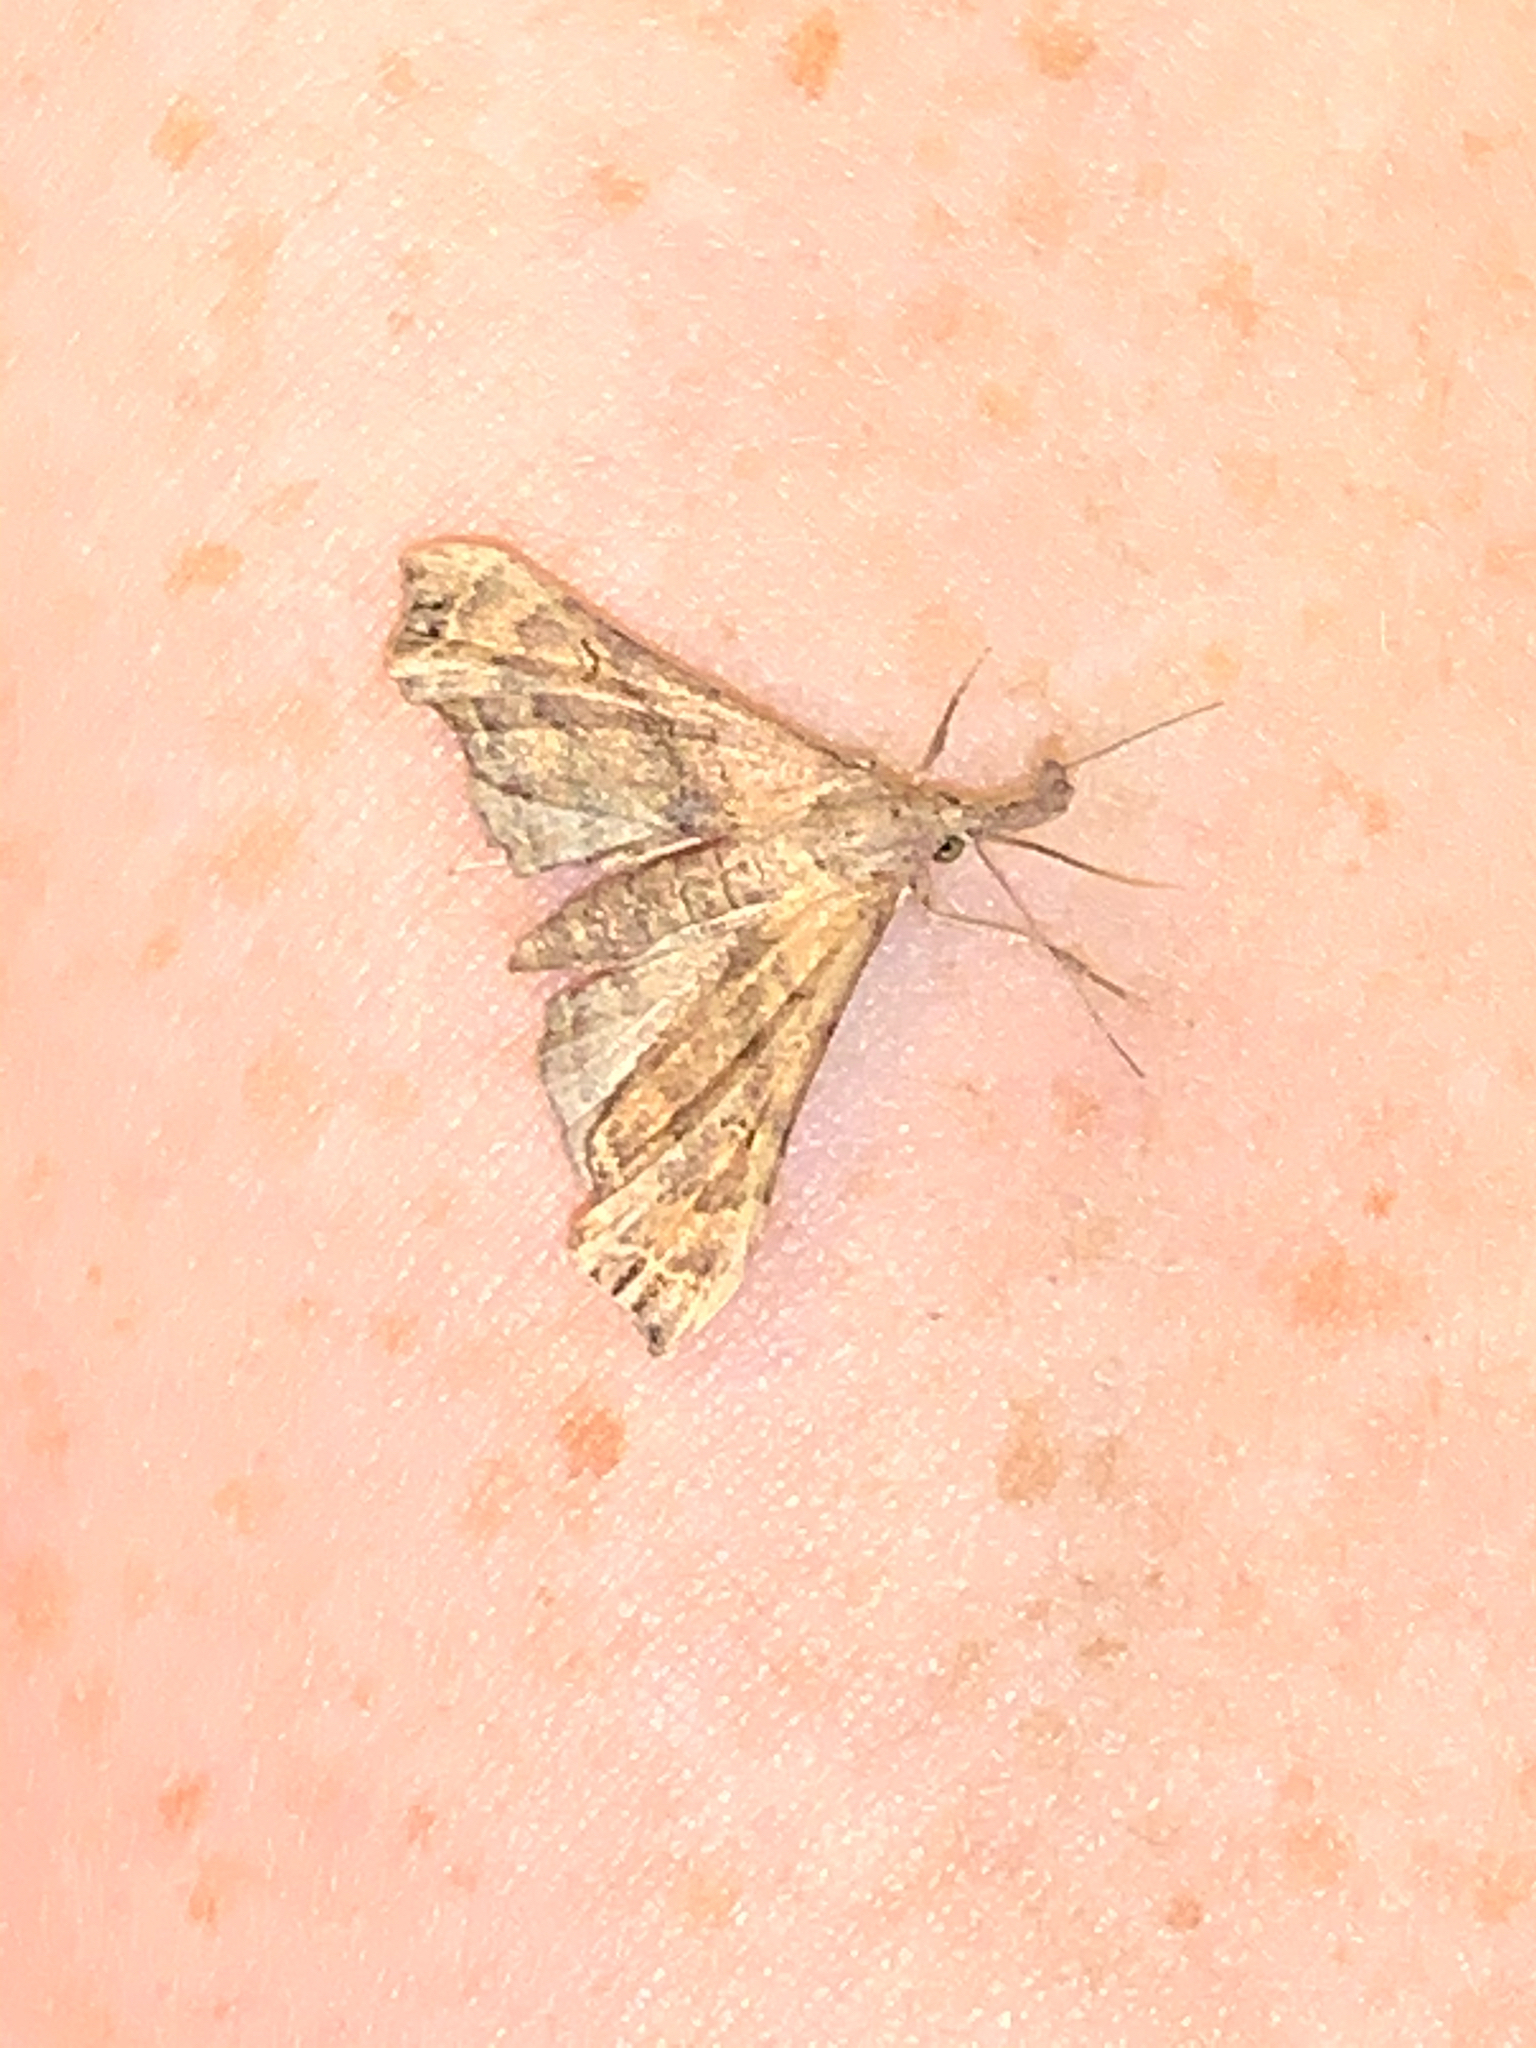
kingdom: Animalia
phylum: Arthropoda
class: Insecta
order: Lepidoptera
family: Erebidae
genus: Palthis
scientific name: Palthis asopialis
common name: Faint-spotted palthis moth
